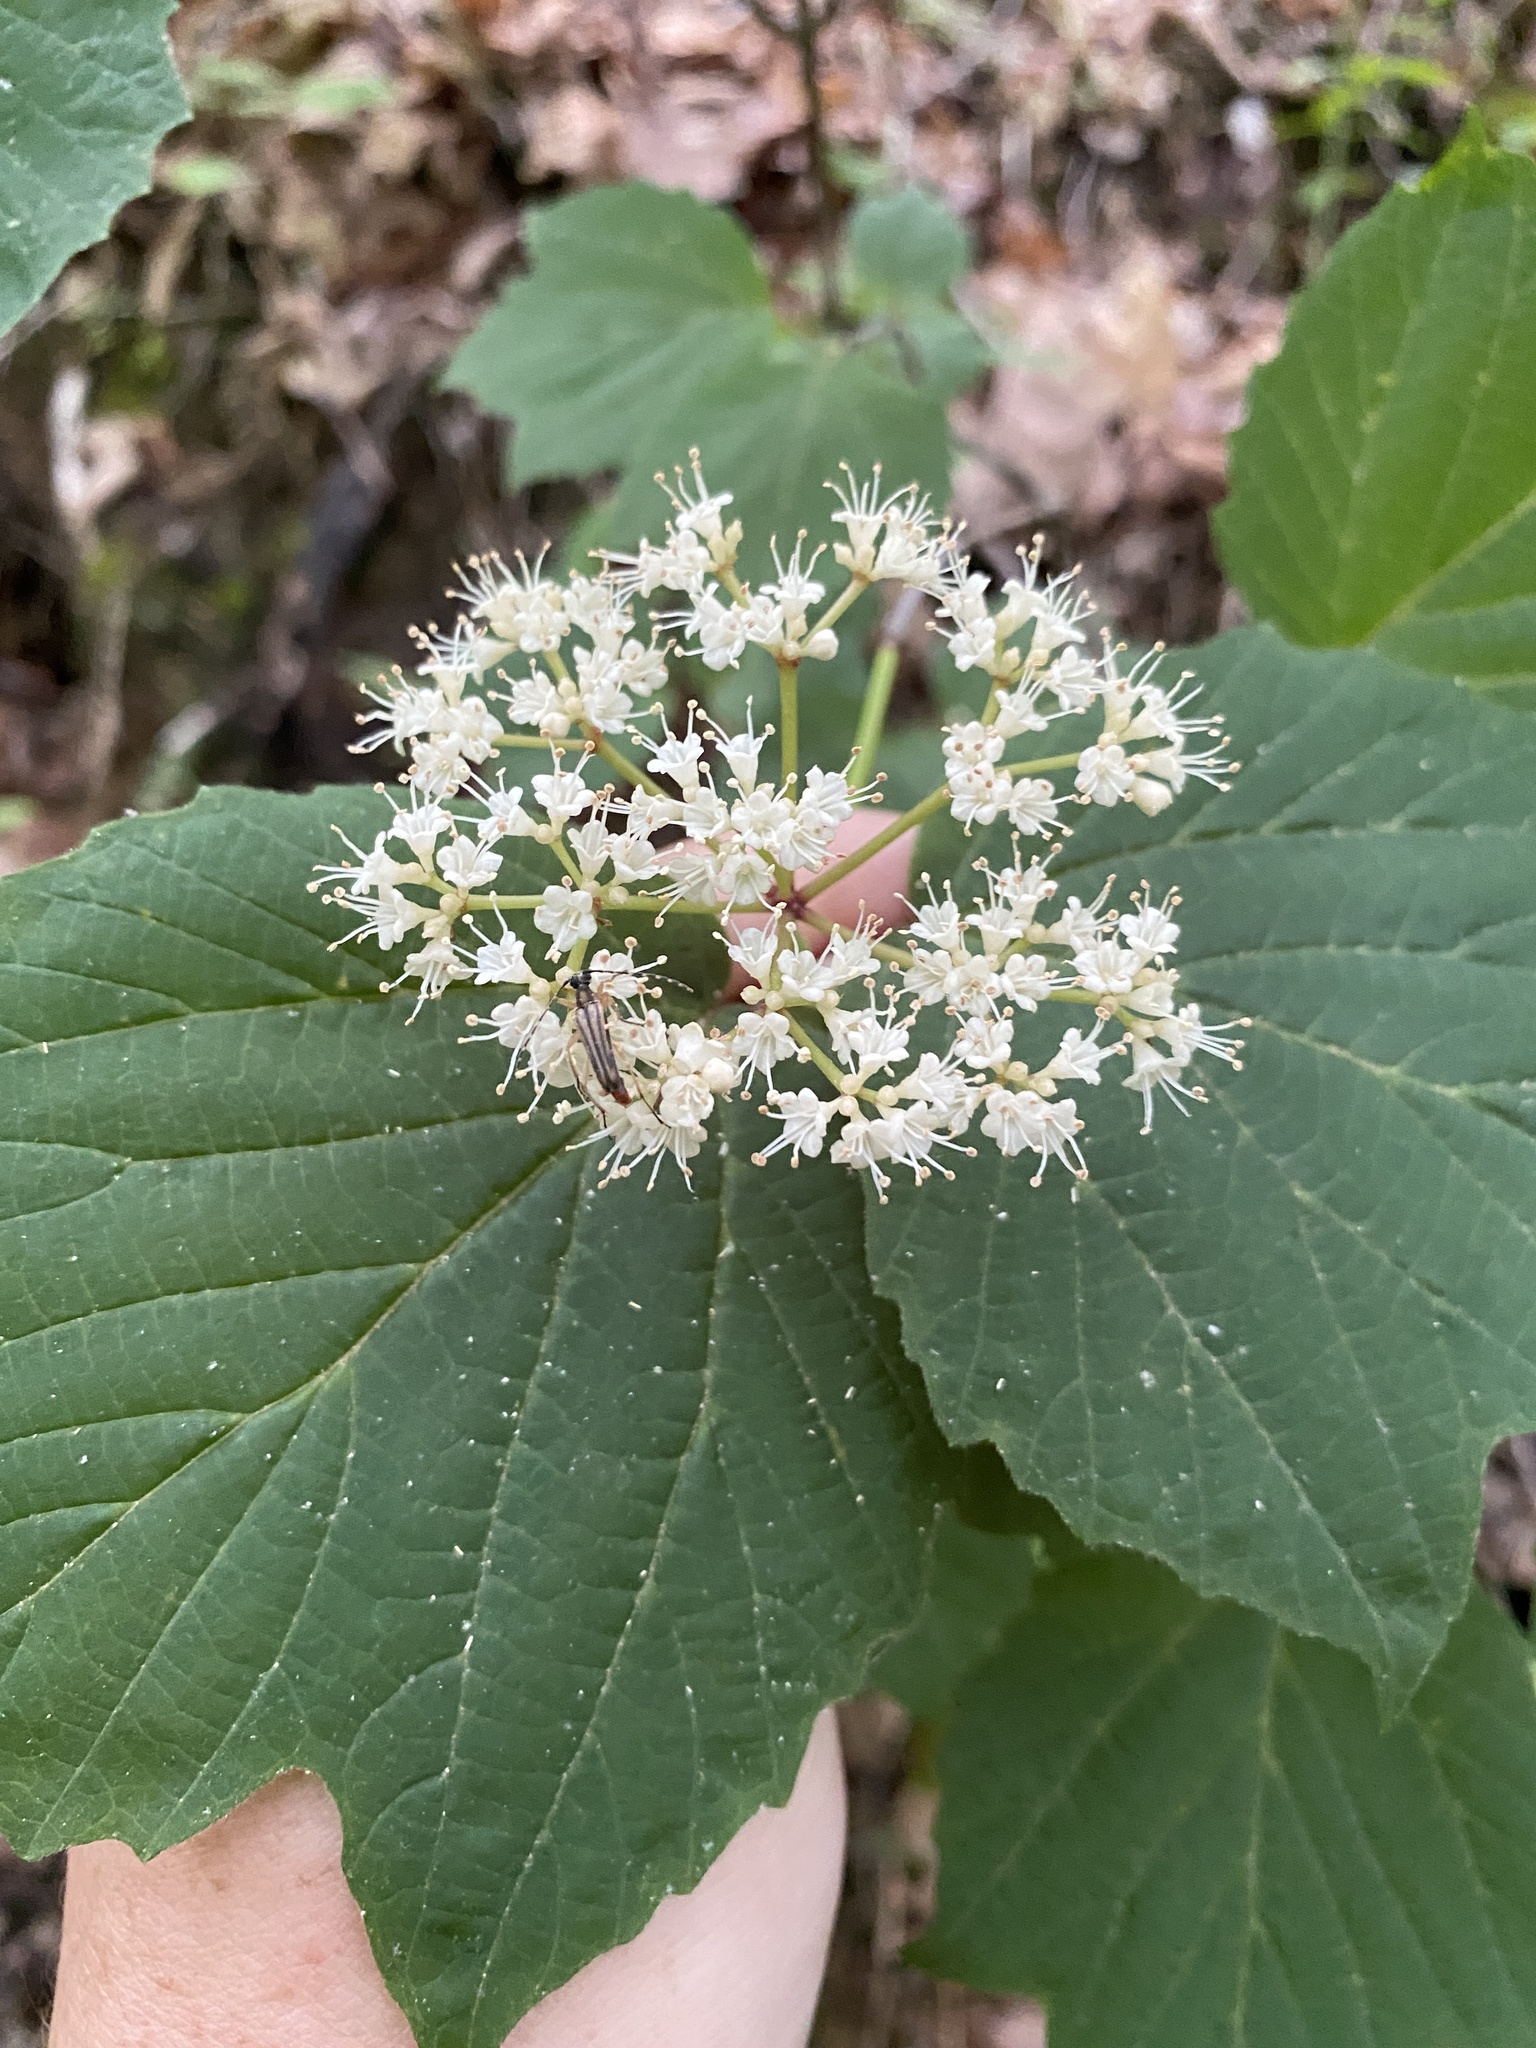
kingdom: Plantae
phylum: Tracheophyta
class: Magnoliopsida
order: Dipsacales
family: Viburnaceae
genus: Viburnum
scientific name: Viburnum acerifolium
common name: Dockmackie
